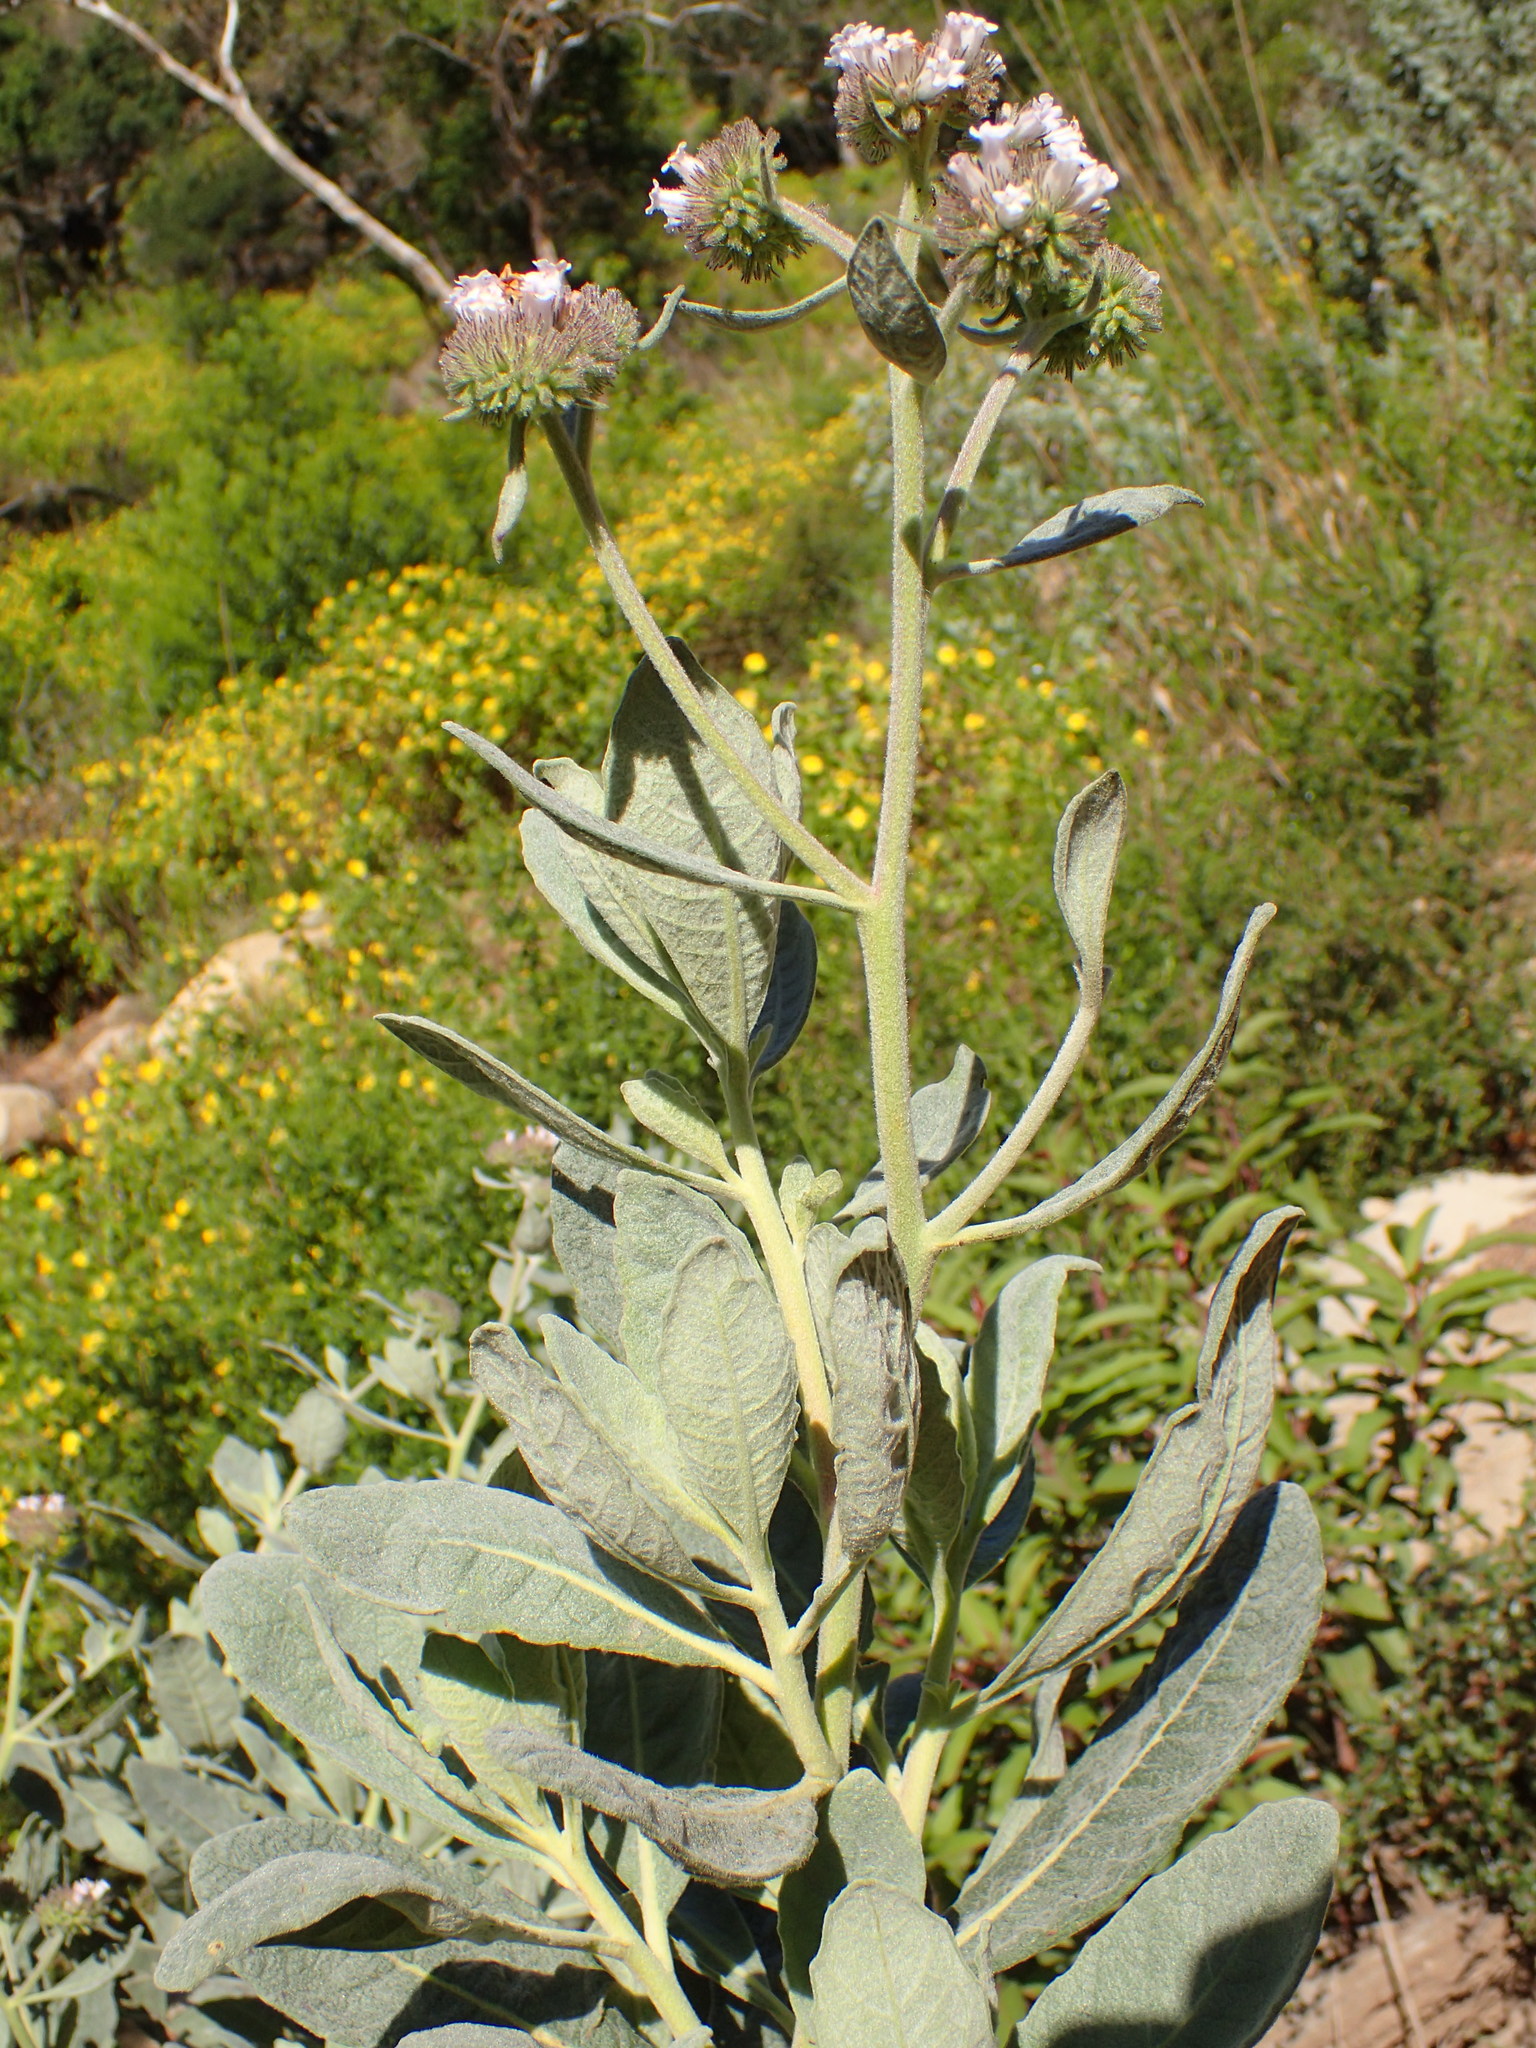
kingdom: Plantae
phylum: Tracheophyta
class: Magnoliopsida
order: Boraginales
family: Namaceae
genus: Eriodictyon
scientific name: Eriodictyon traskiae
